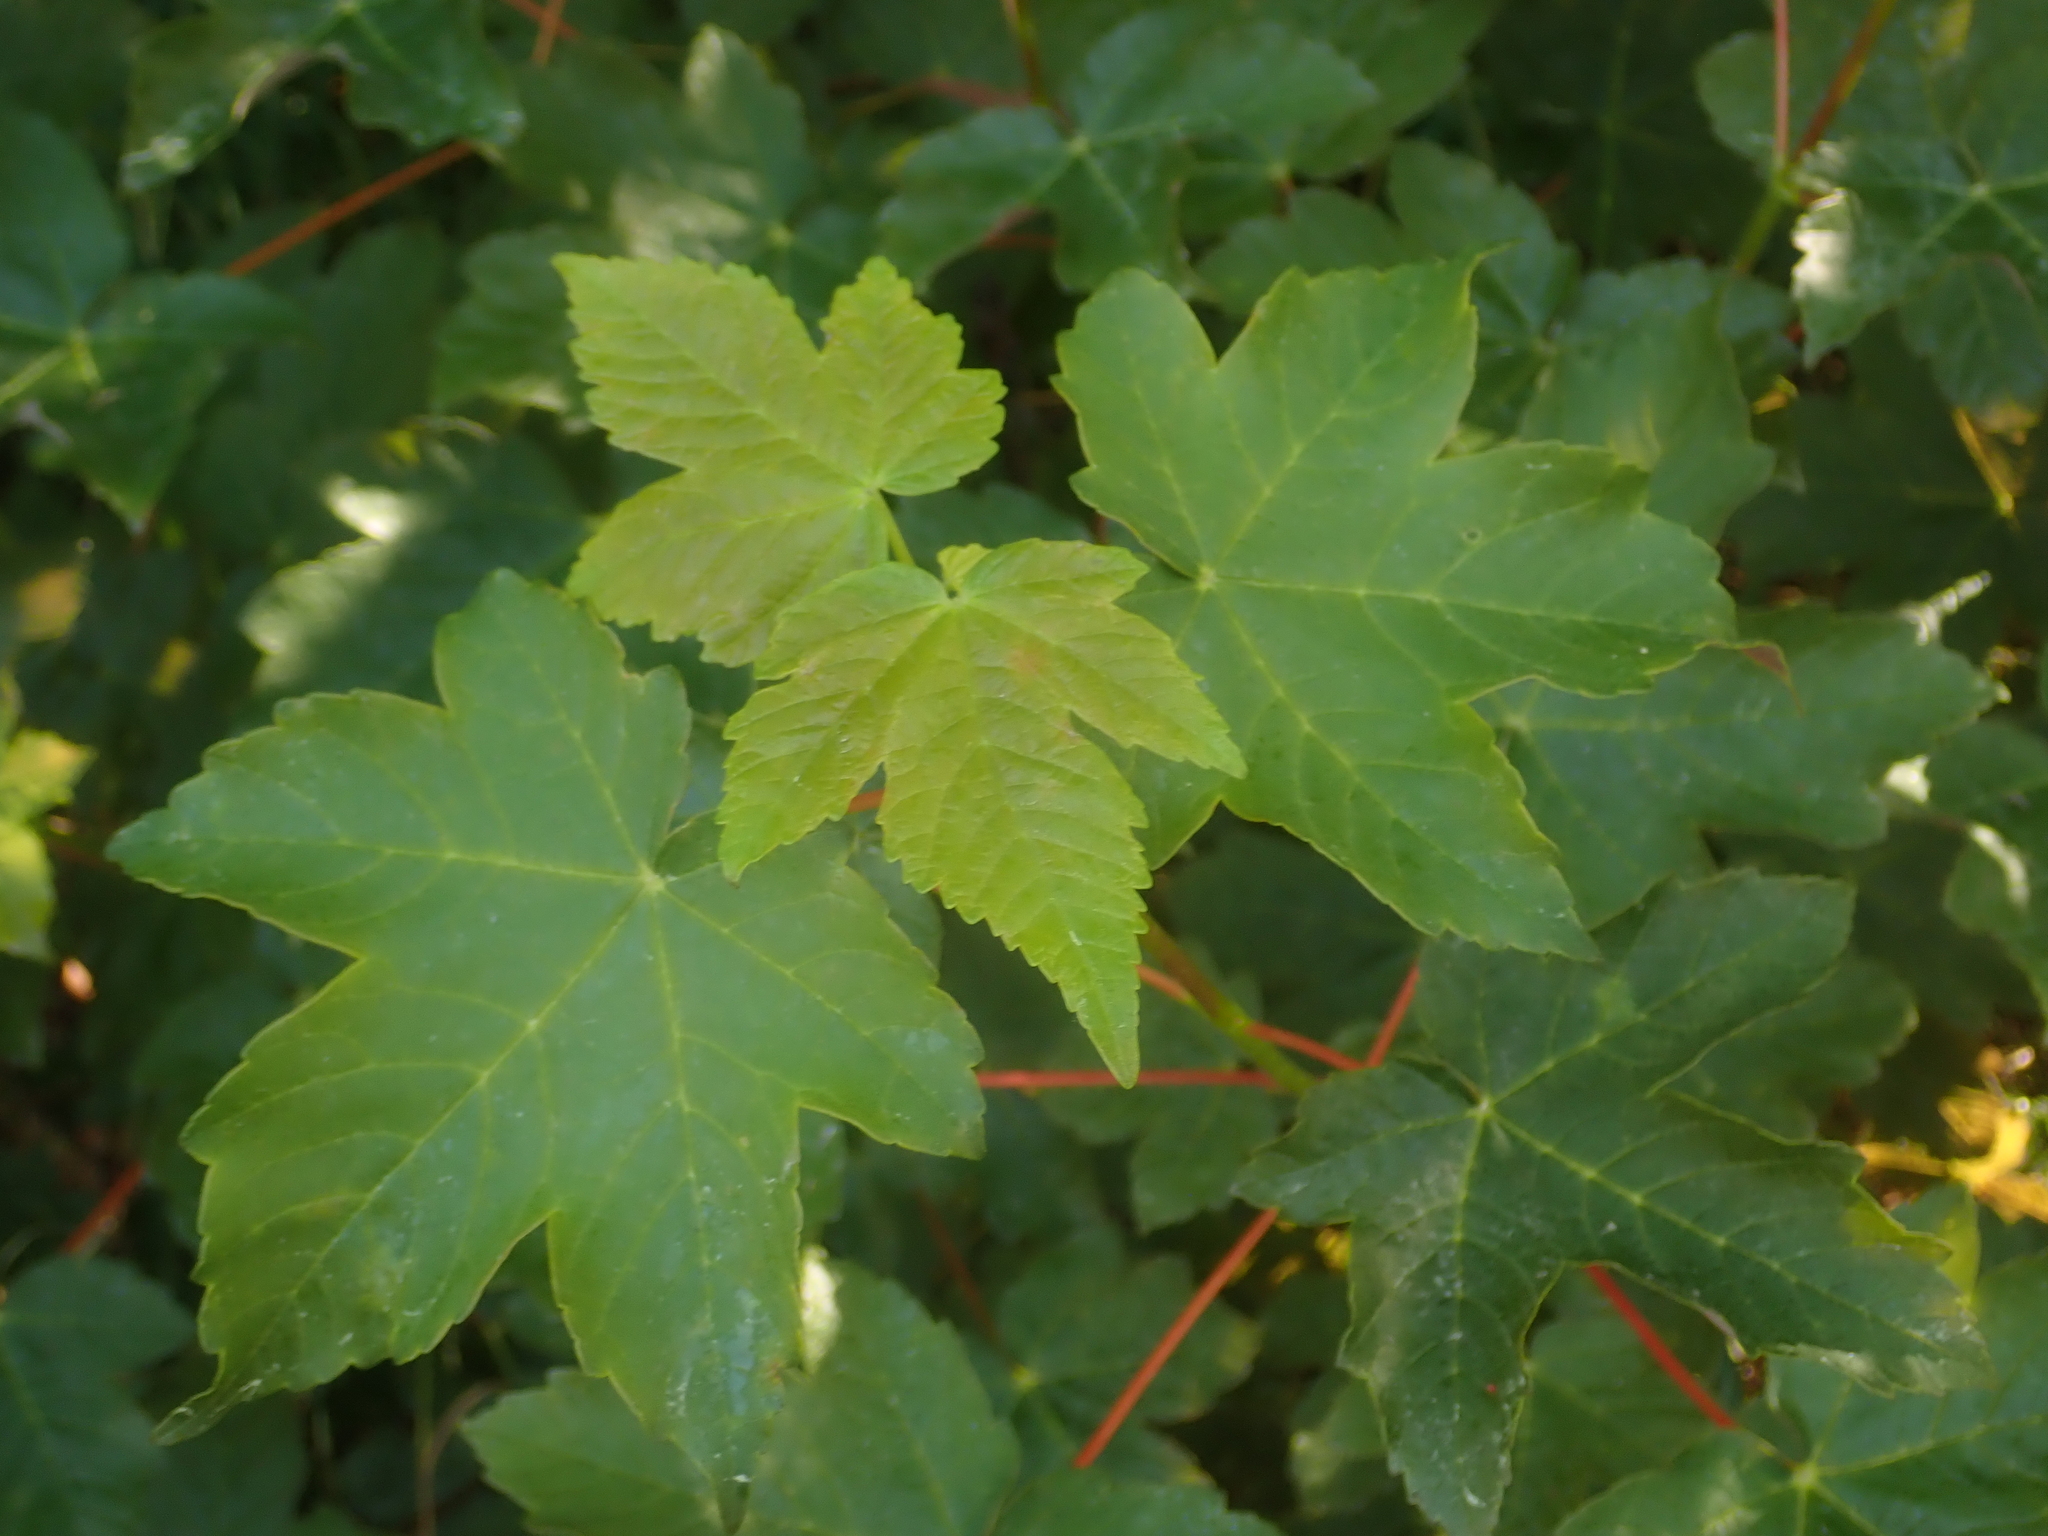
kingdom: Plantae
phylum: Tracheophyta
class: Magnoliopsida
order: Sapindales
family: Sapindaceae
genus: Acer
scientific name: Acer pseudoplatanus
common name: Sycamore
